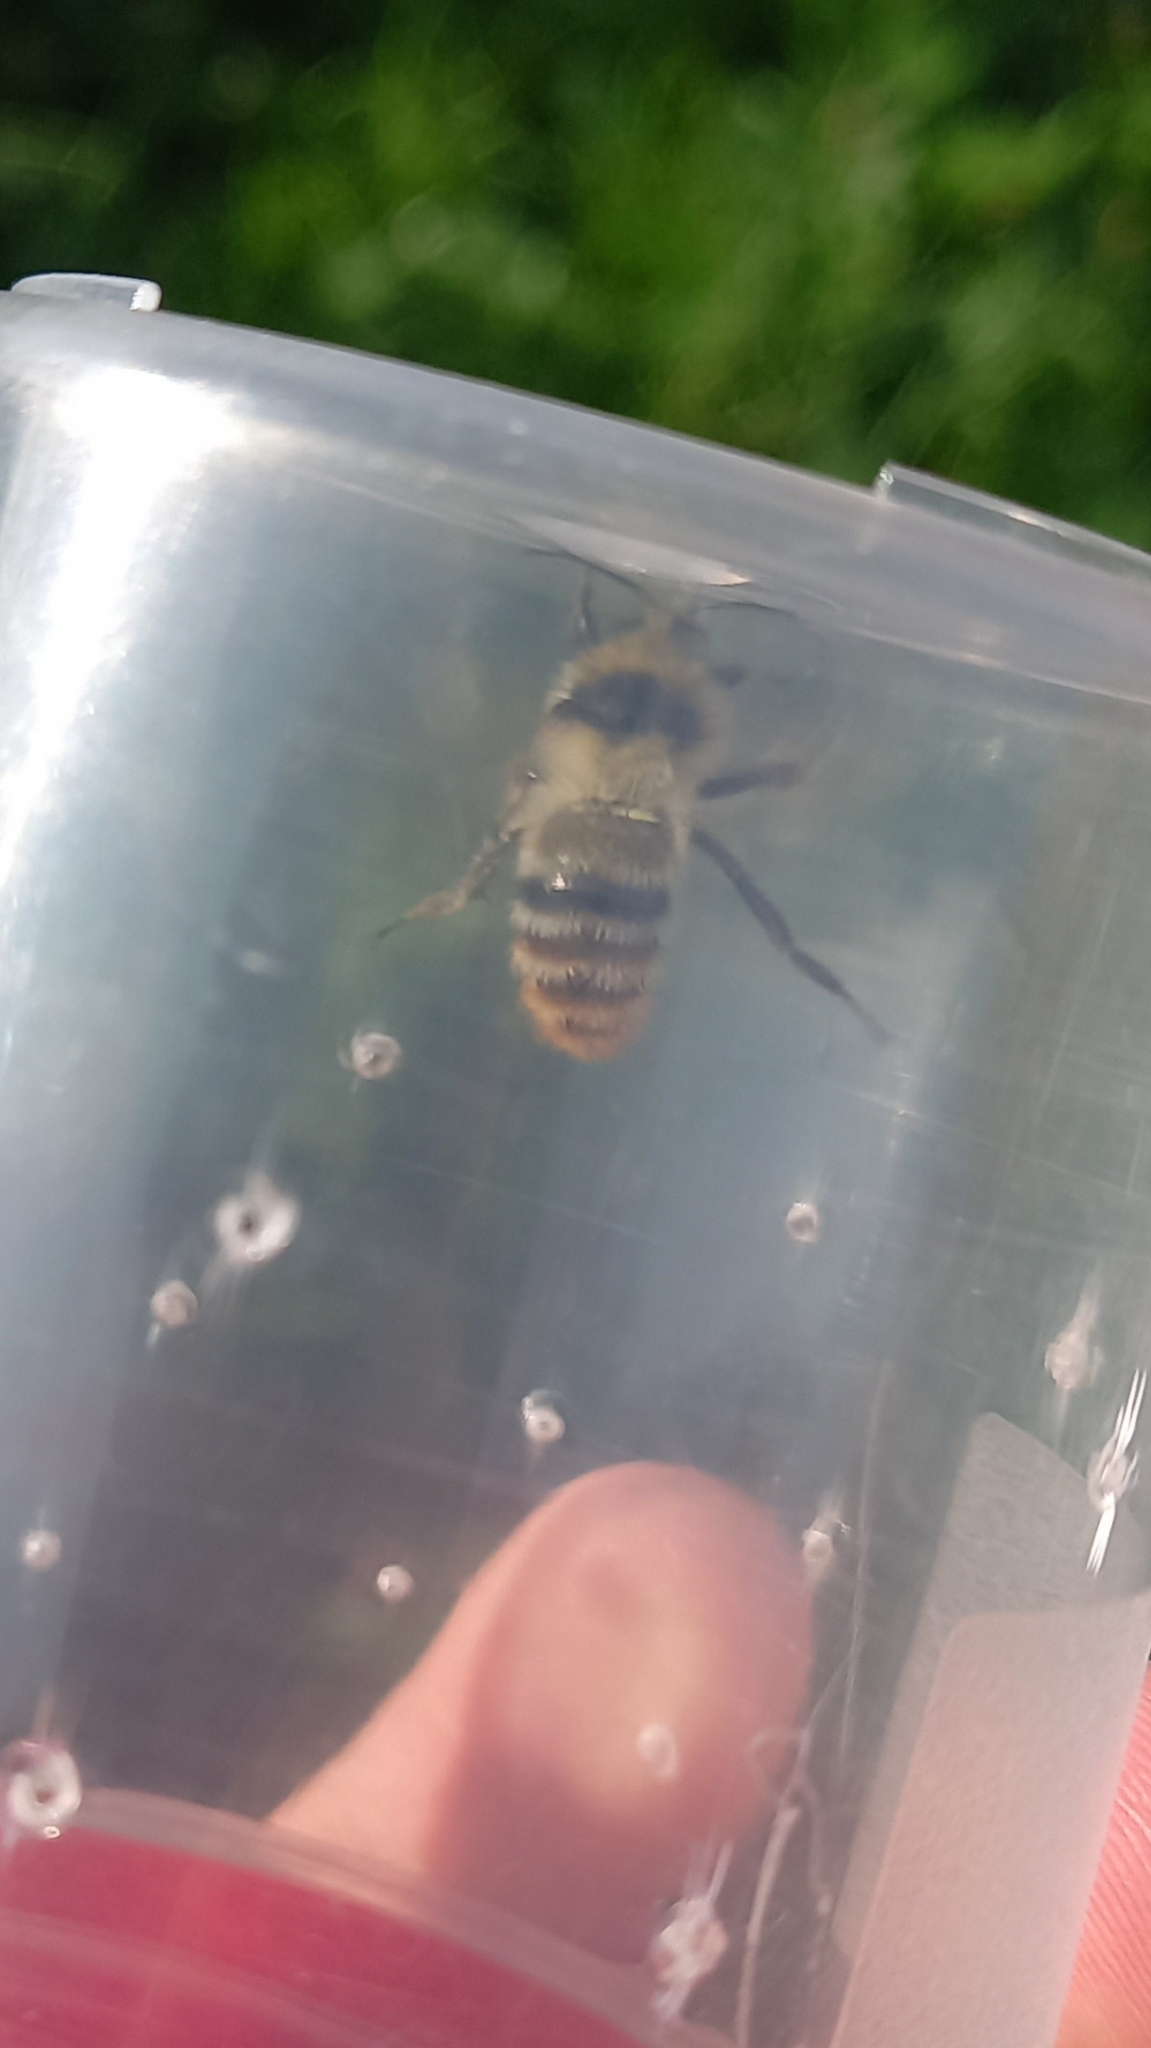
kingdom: Animalia
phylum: Arthropoda
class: Insecta
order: Hymenoptera
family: Apidae
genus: Bombus
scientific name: Bombus sylvarum
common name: Shrill carder bee
